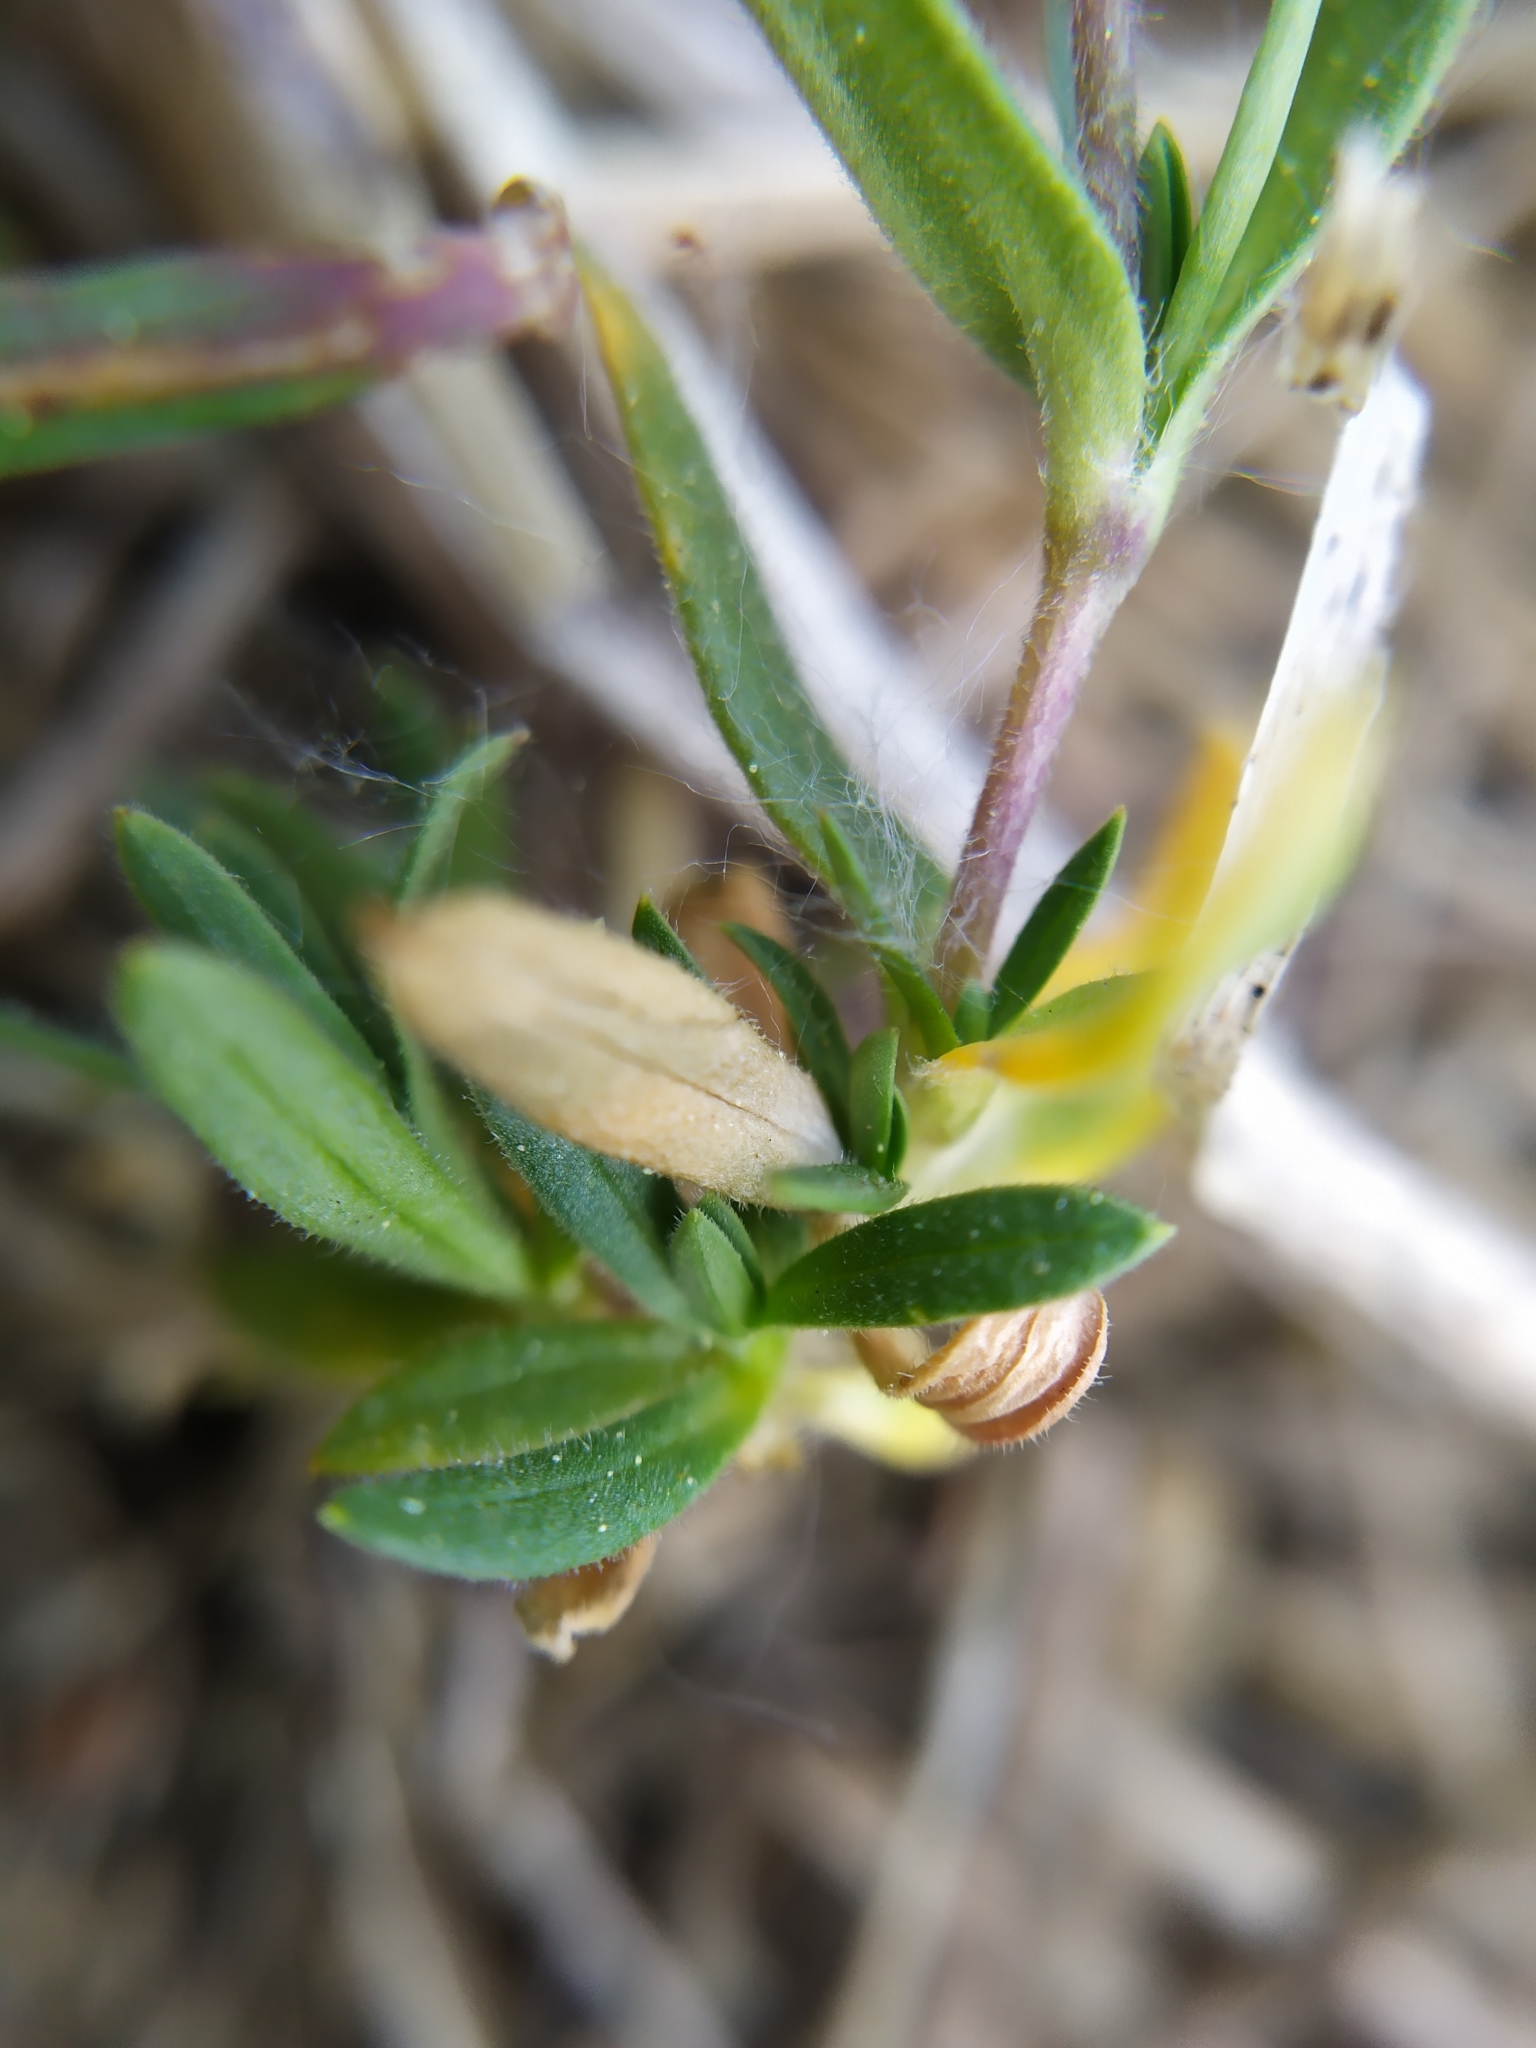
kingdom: Plantae
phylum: Tracheophyta
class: Magnoliopsida
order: Caryophyllales
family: Caryophyllaceae
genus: Cerastium
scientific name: Cerastium arvense
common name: Field mouse-ear
